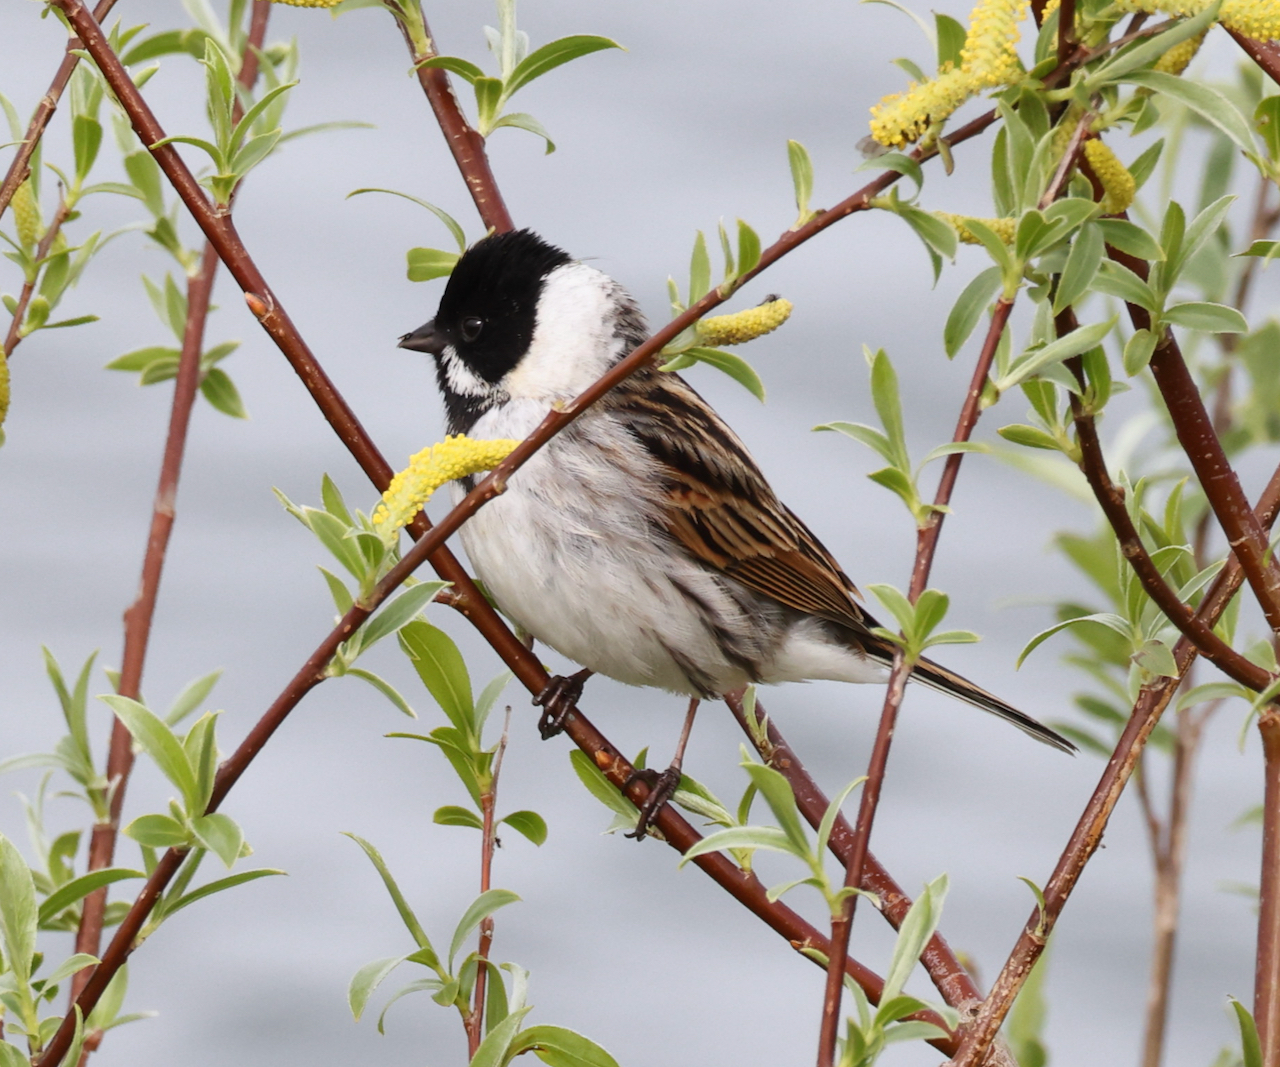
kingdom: Animalia
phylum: Chordata
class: Aves
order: Passeriformes
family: Emberizidae
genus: Emberiza
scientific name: Emberiza schoeniclus
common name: Reed bunting
